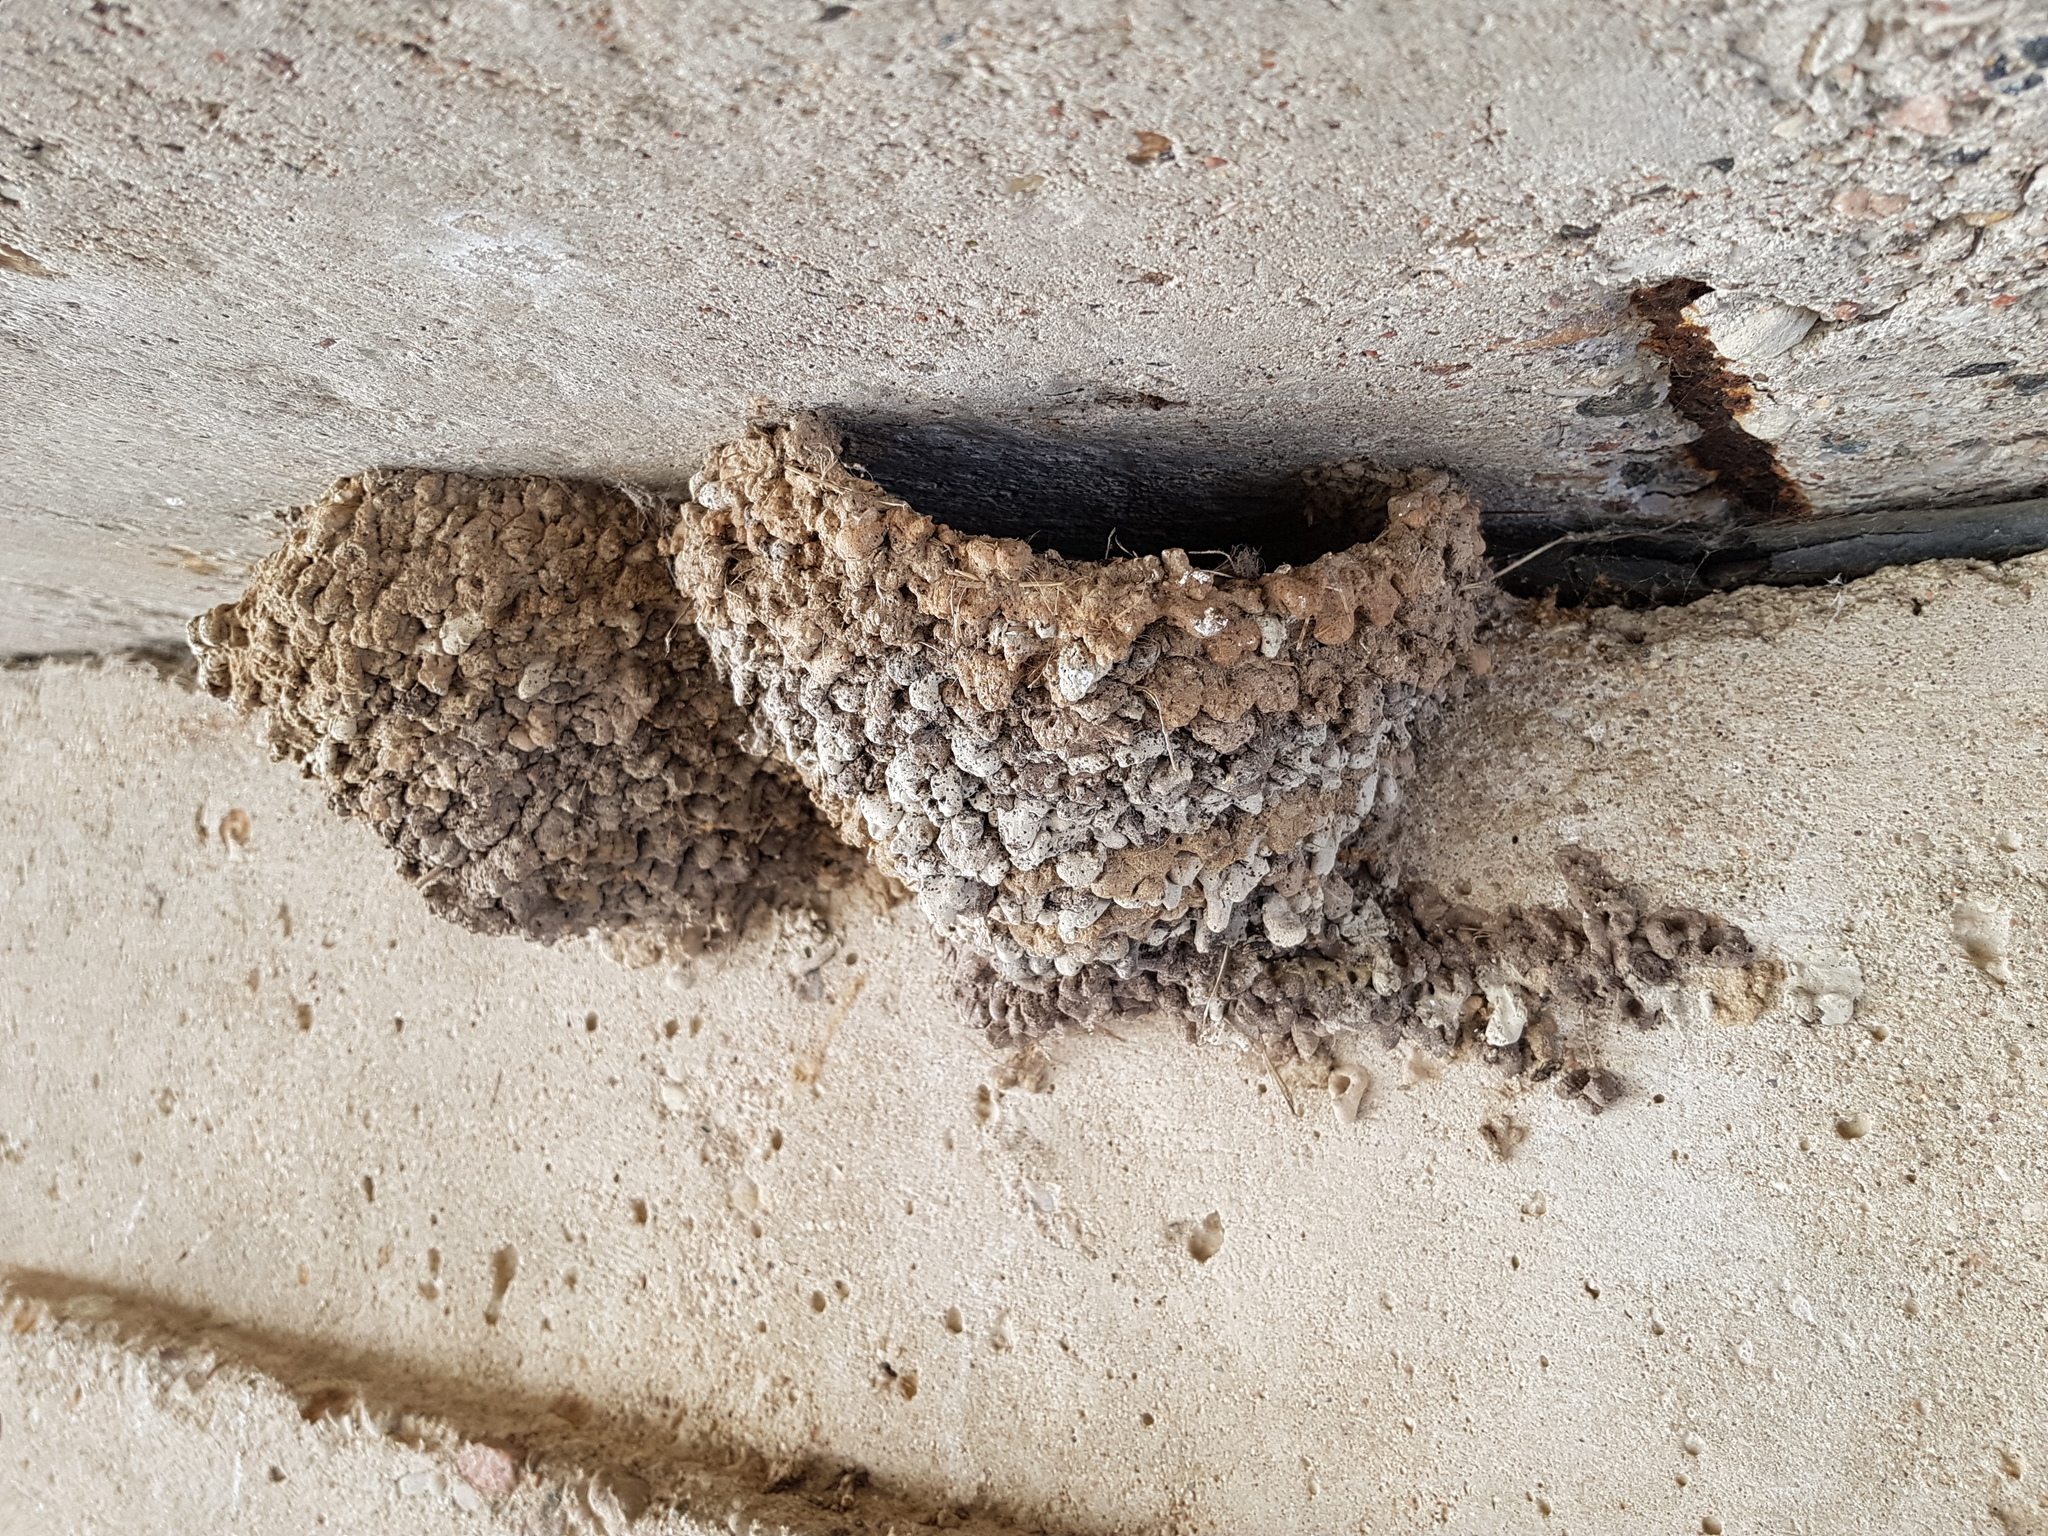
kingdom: Animalia
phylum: Chordata
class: Aves
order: Passeriformes
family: Hirundinidae
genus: Delichon
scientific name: Delichon urbicum
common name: Common house martin
